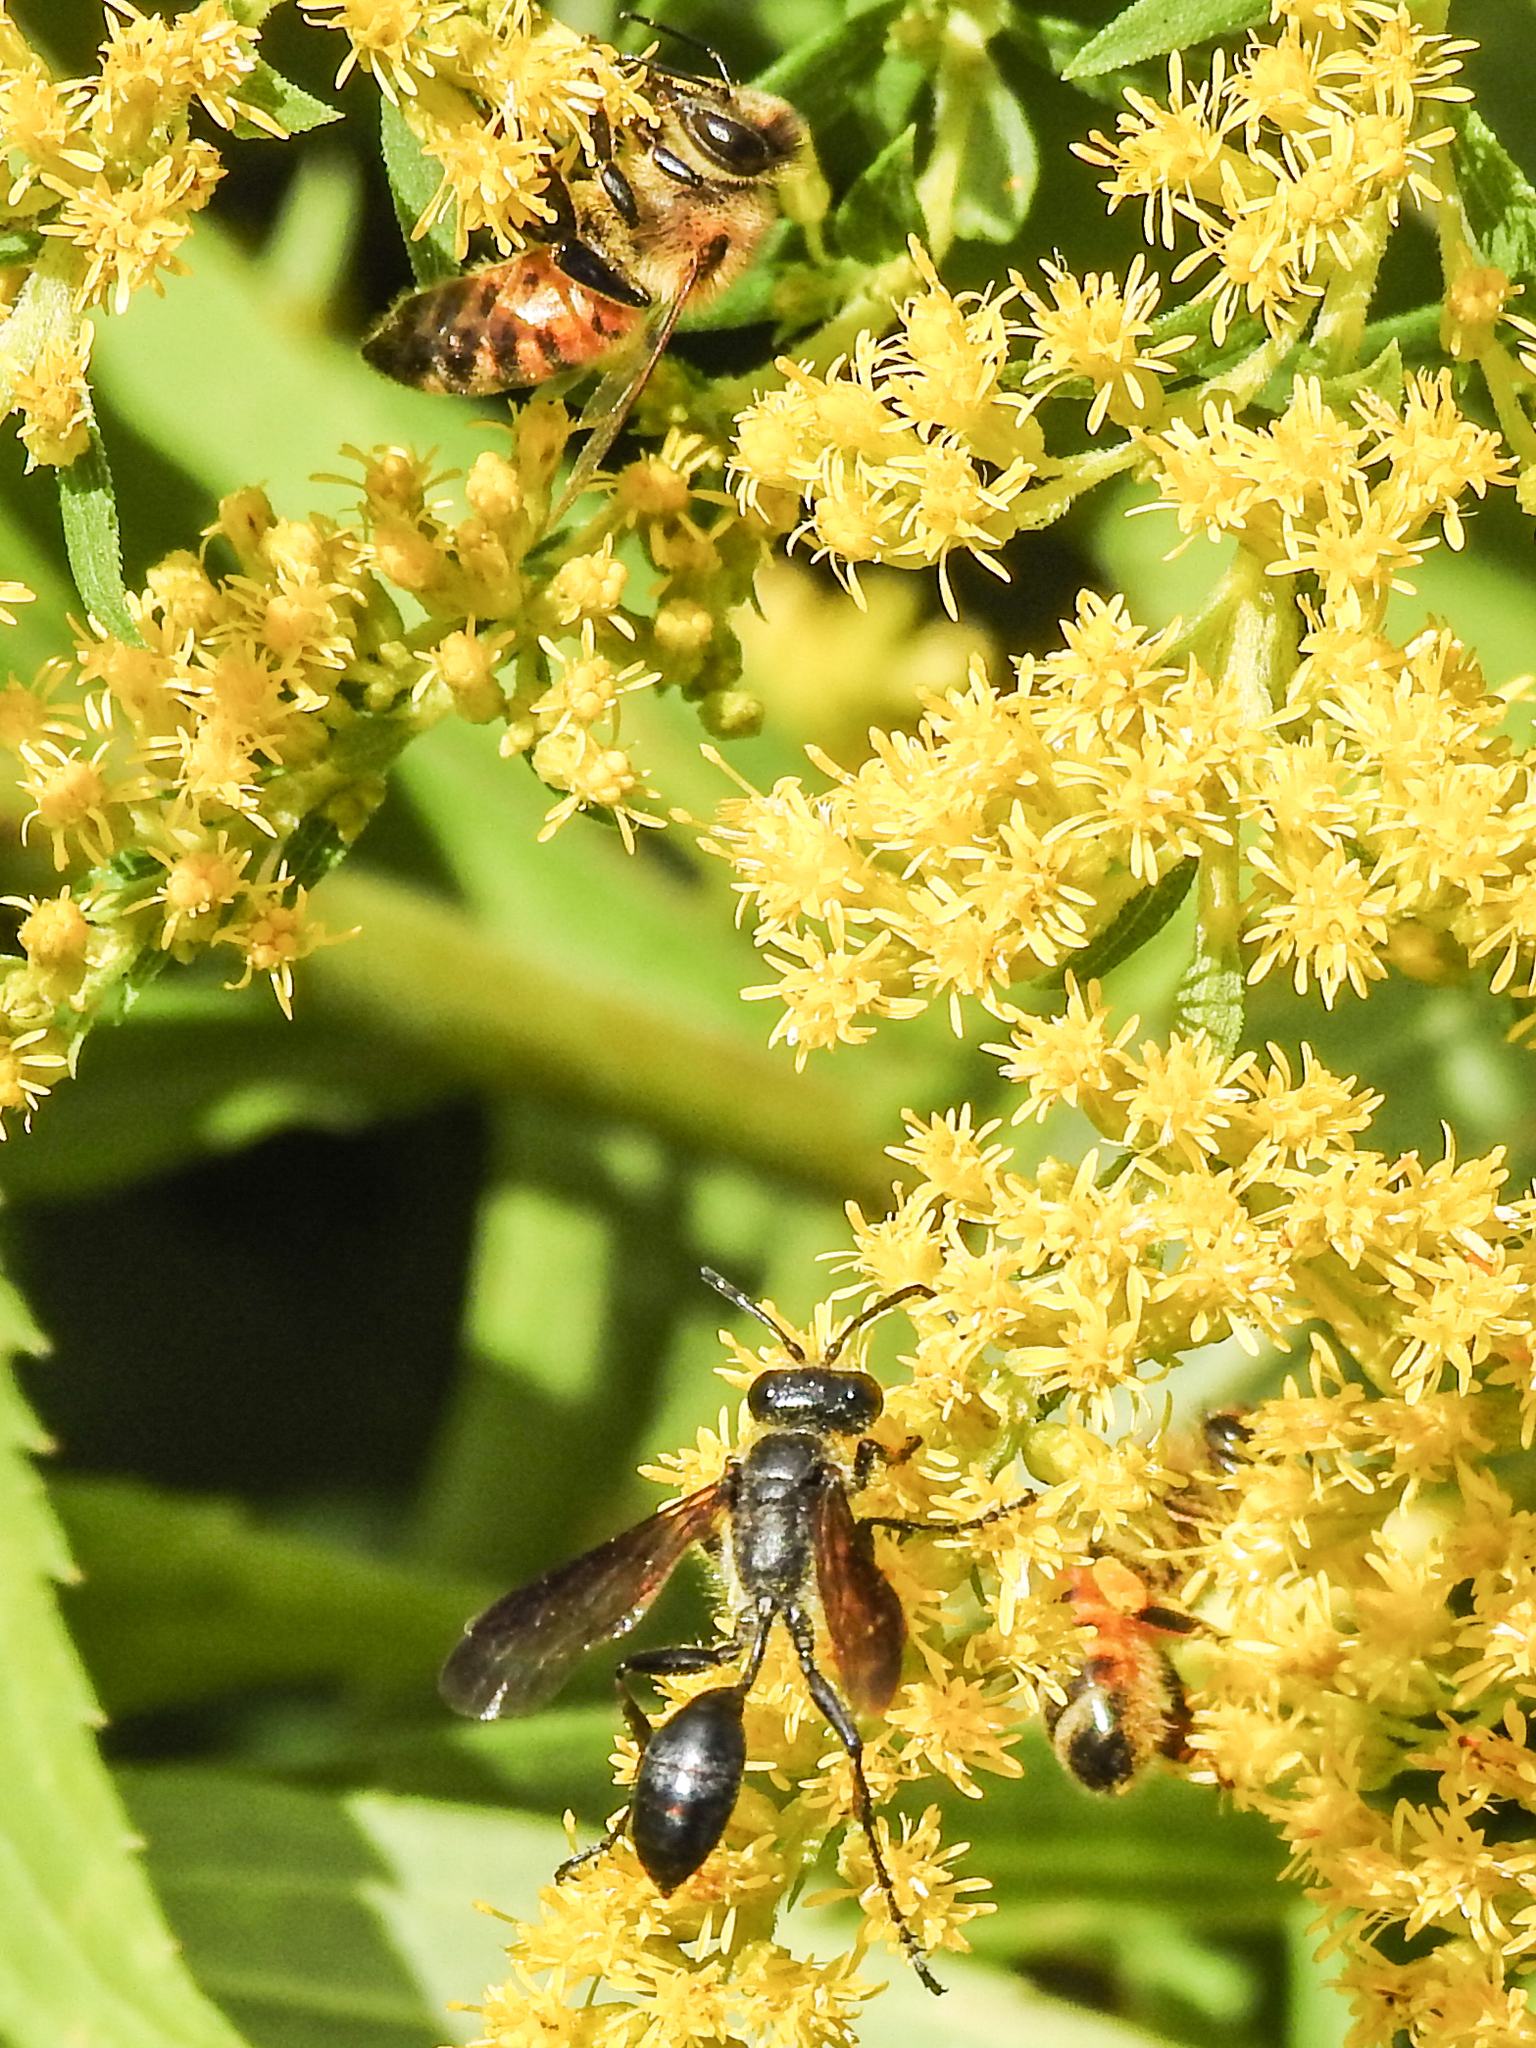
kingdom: Animalia
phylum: Arthropoda
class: Insecta
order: Hymenoptera
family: Sphecidae
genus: Isodontia
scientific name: Isodontia mexicana
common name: Mud dauber
